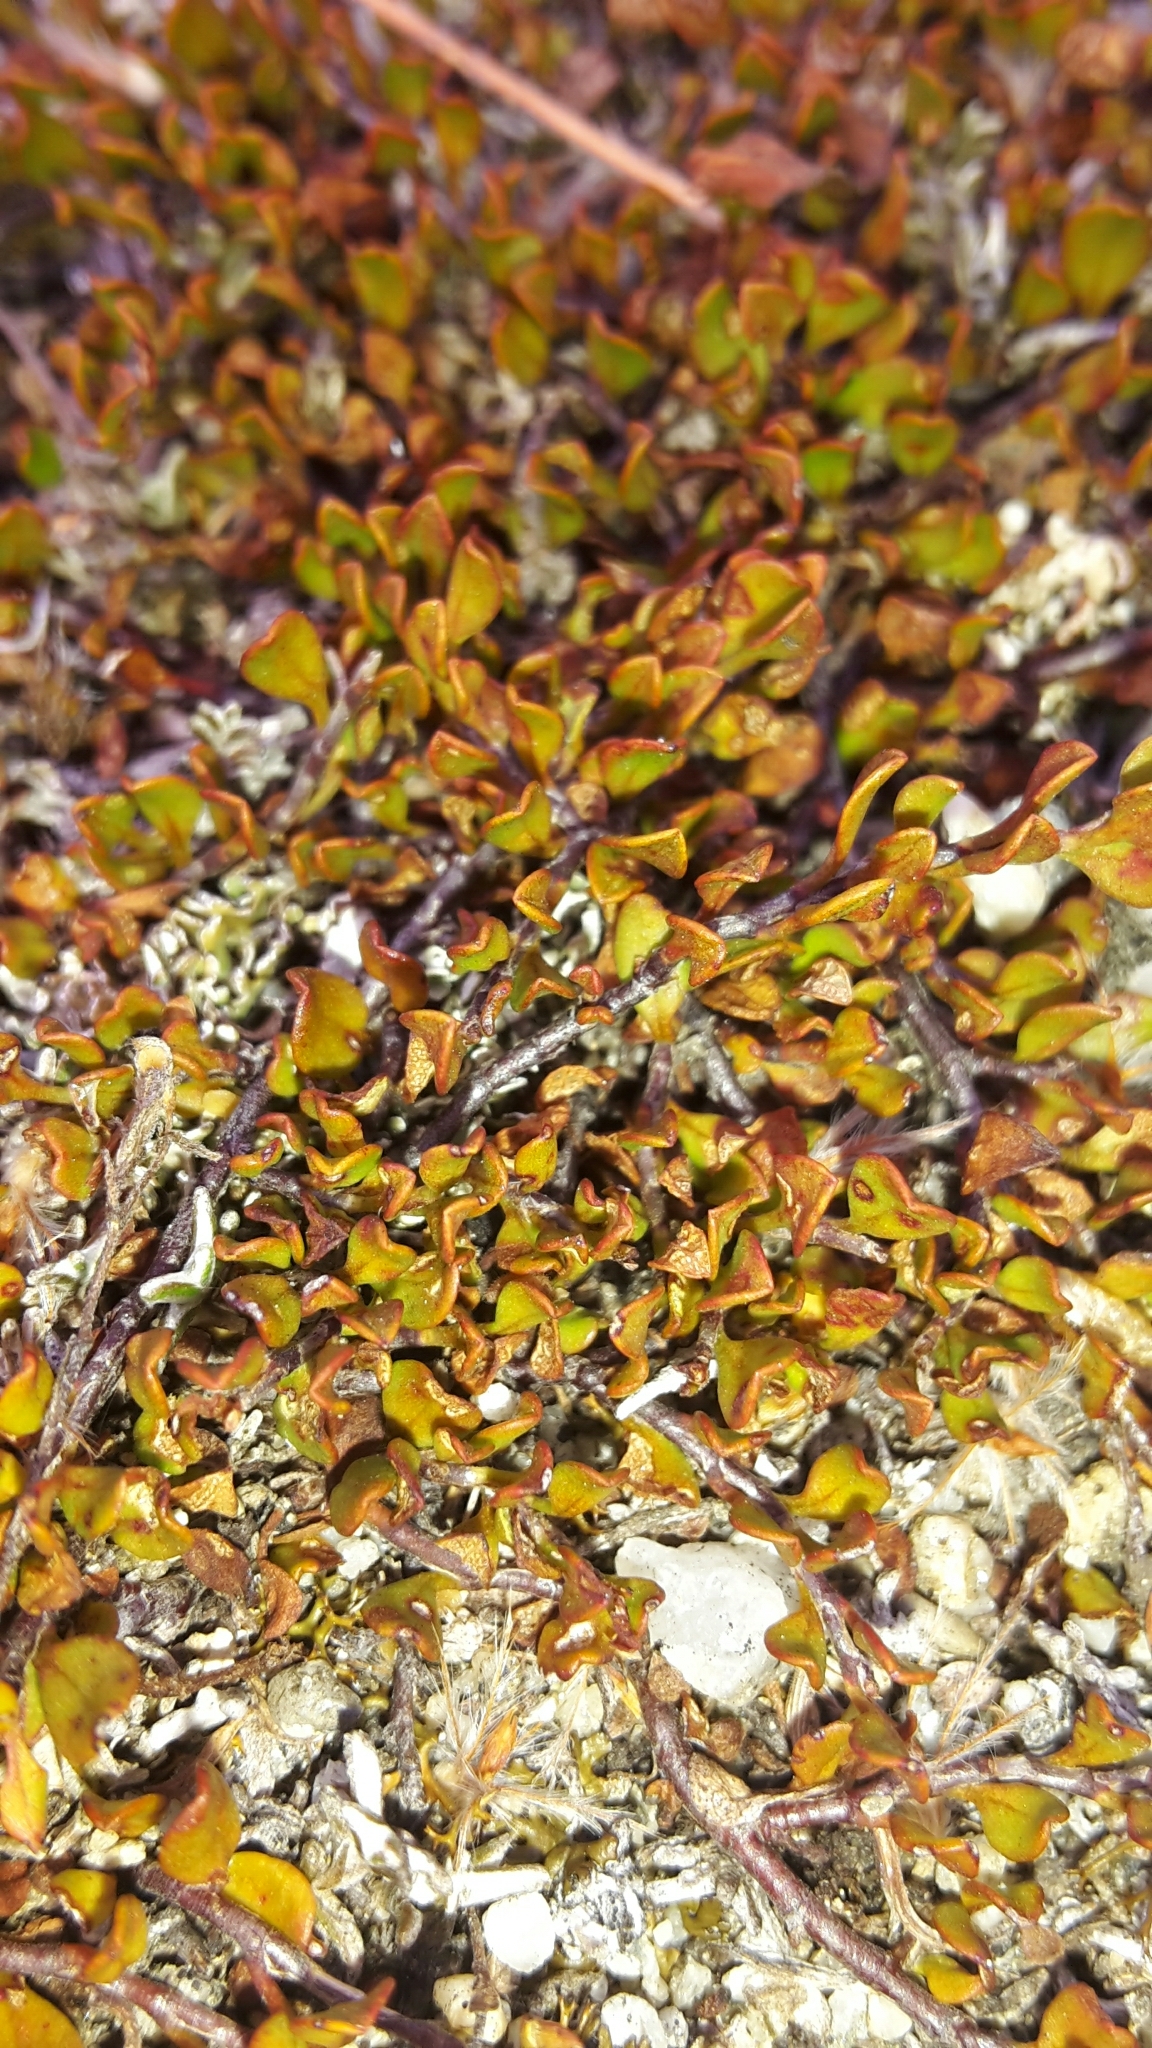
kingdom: Plantae
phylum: Tracheophyta
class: Magnoliopsida
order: Caryophyllales
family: Polygonaceae
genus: Muehlenbeckia
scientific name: Muehlenbeckia axillaris
